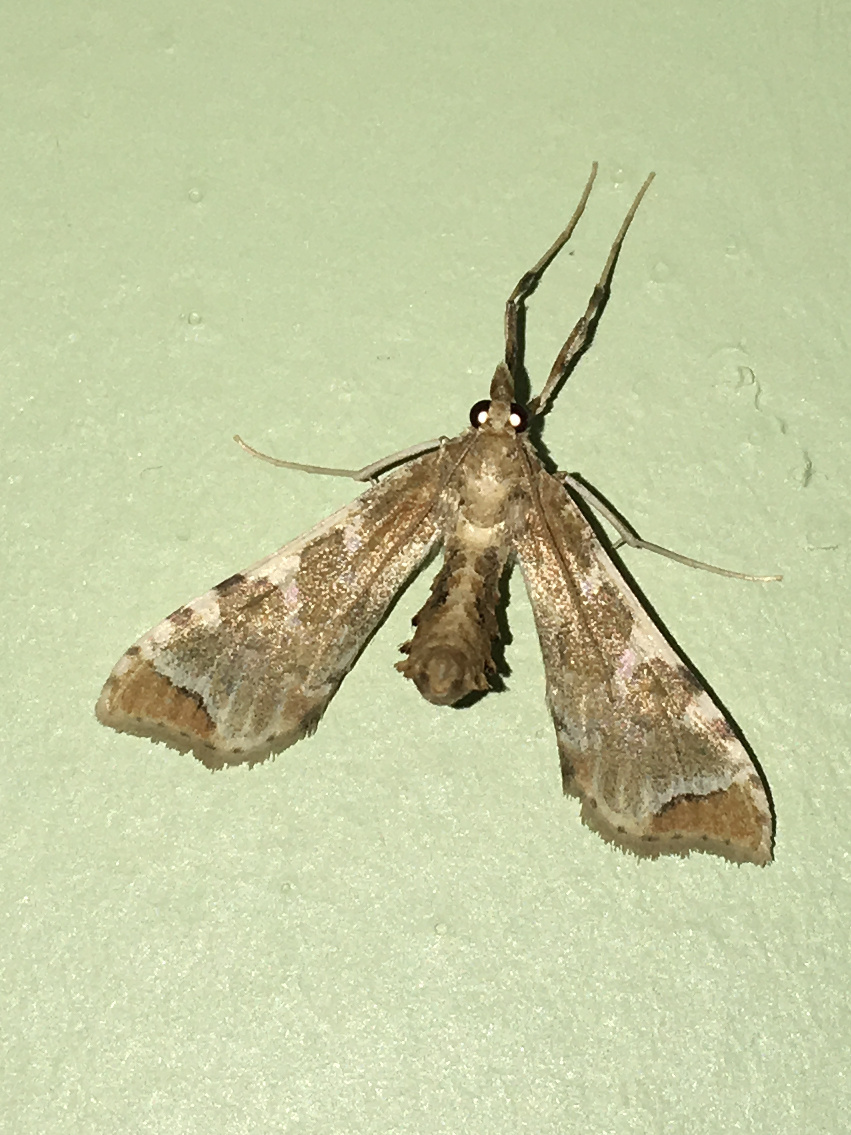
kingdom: Animalia
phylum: Arthropoda
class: Insecta
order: Lepidoptera
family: Crambidae
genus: Sceliodes
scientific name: Sceliodes cordalis
